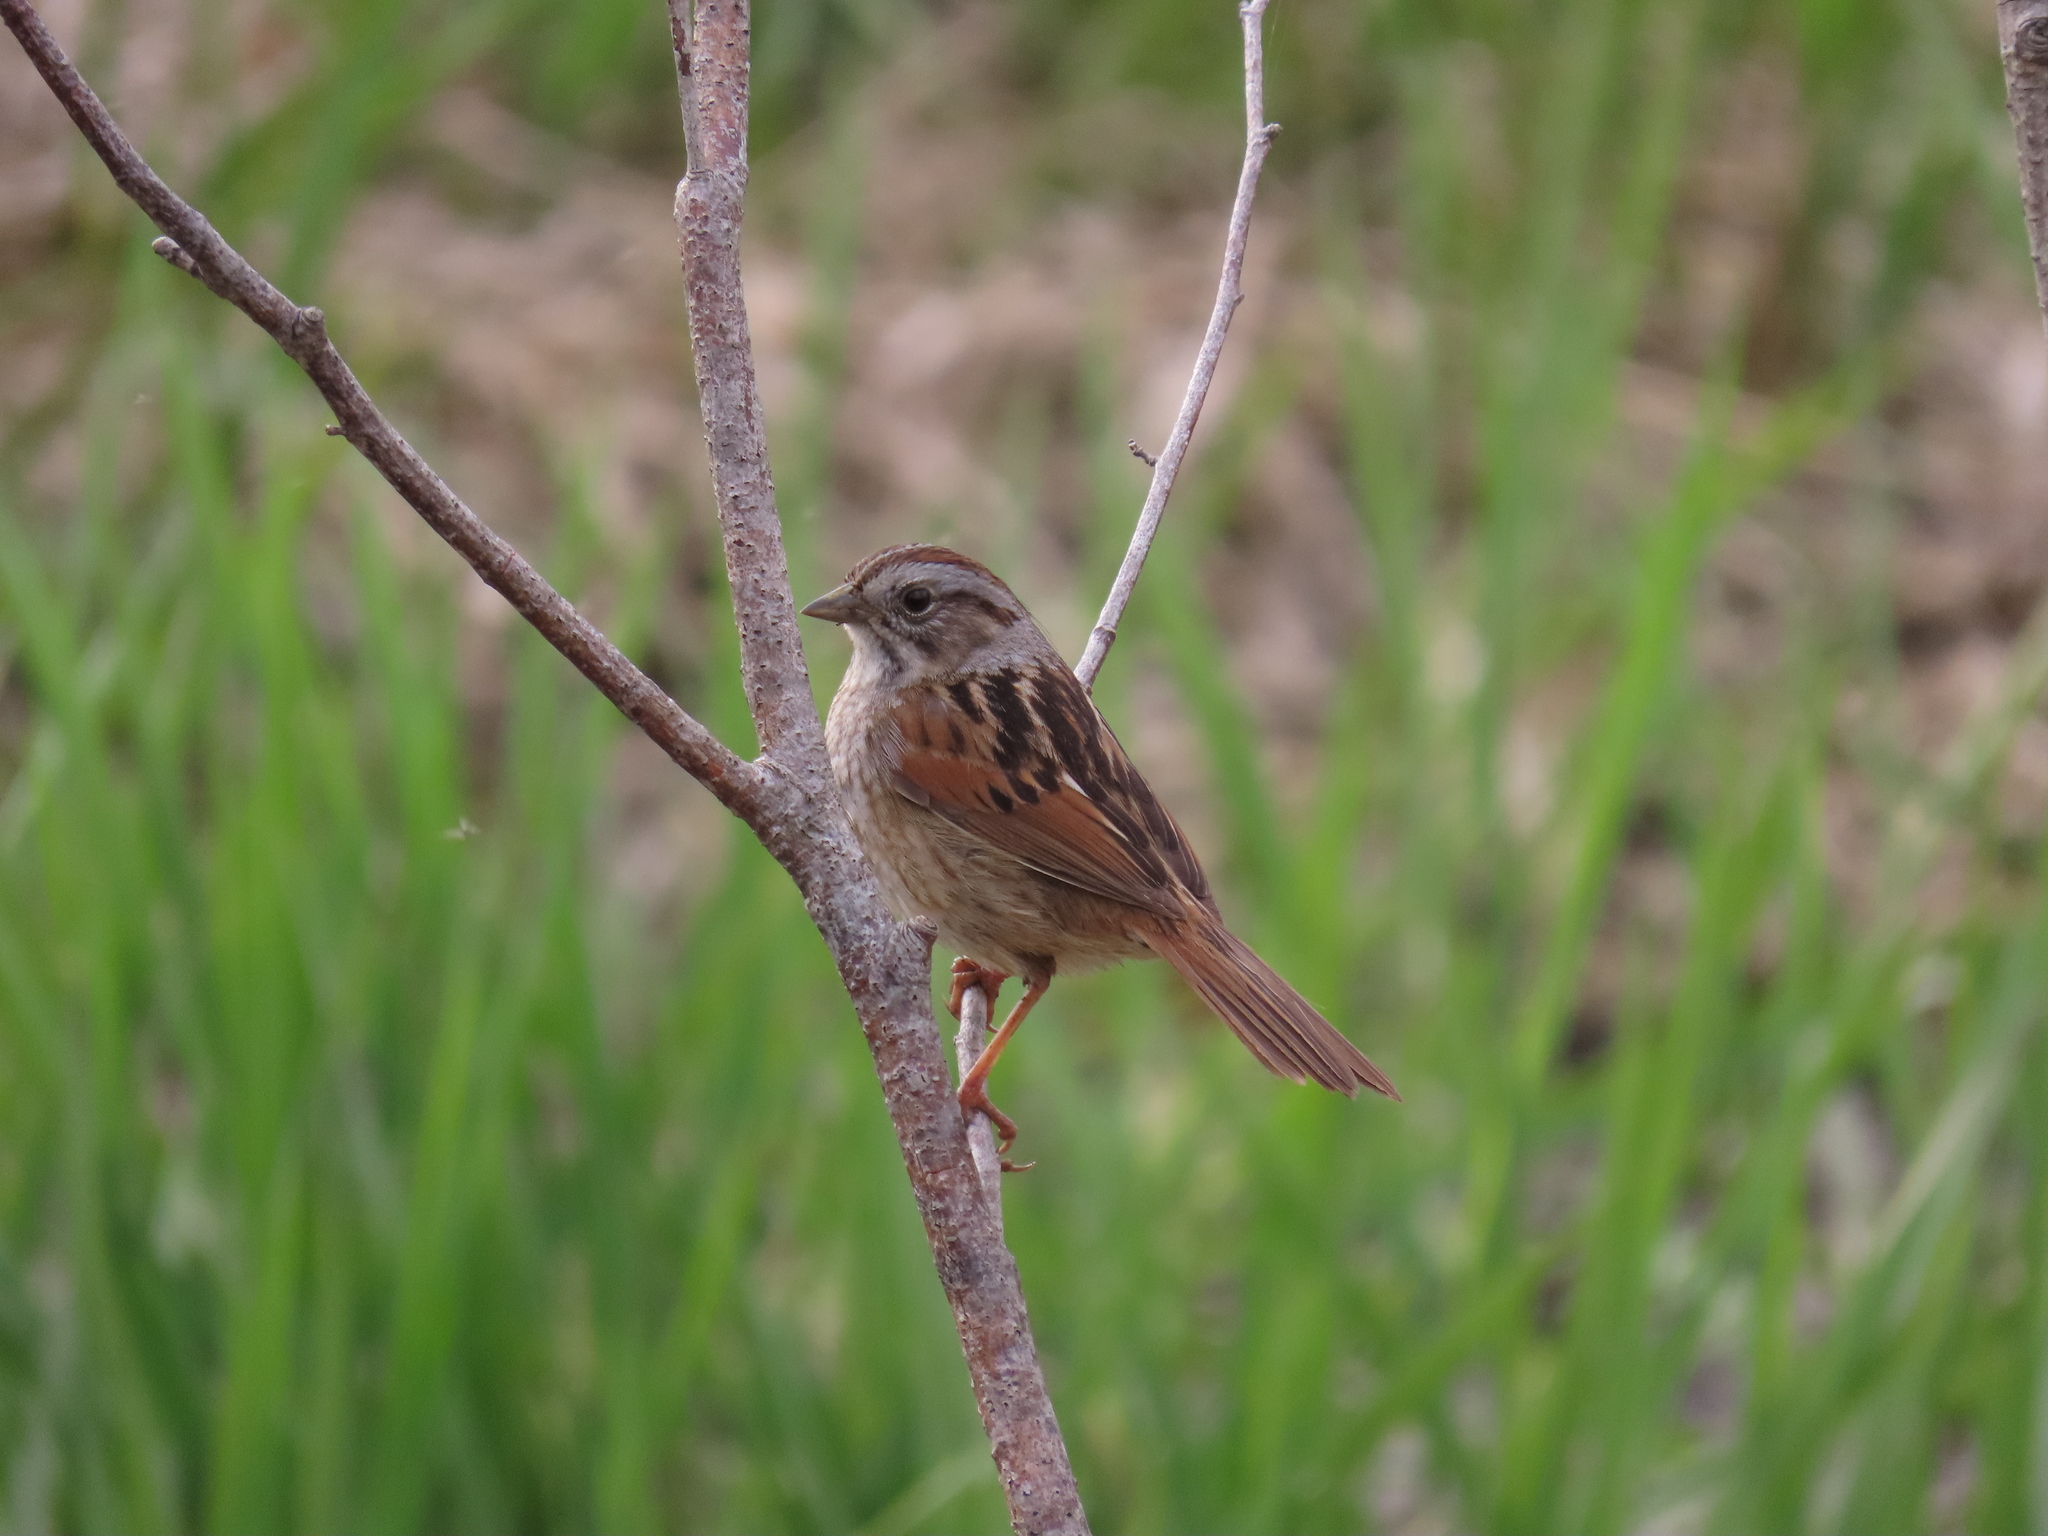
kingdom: Animalia
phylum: Chordata
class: Aves
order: Passeriformes
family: Passerellidae
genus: Melospiza
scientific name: Melospiza georgiana
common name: Swamp sparrow
